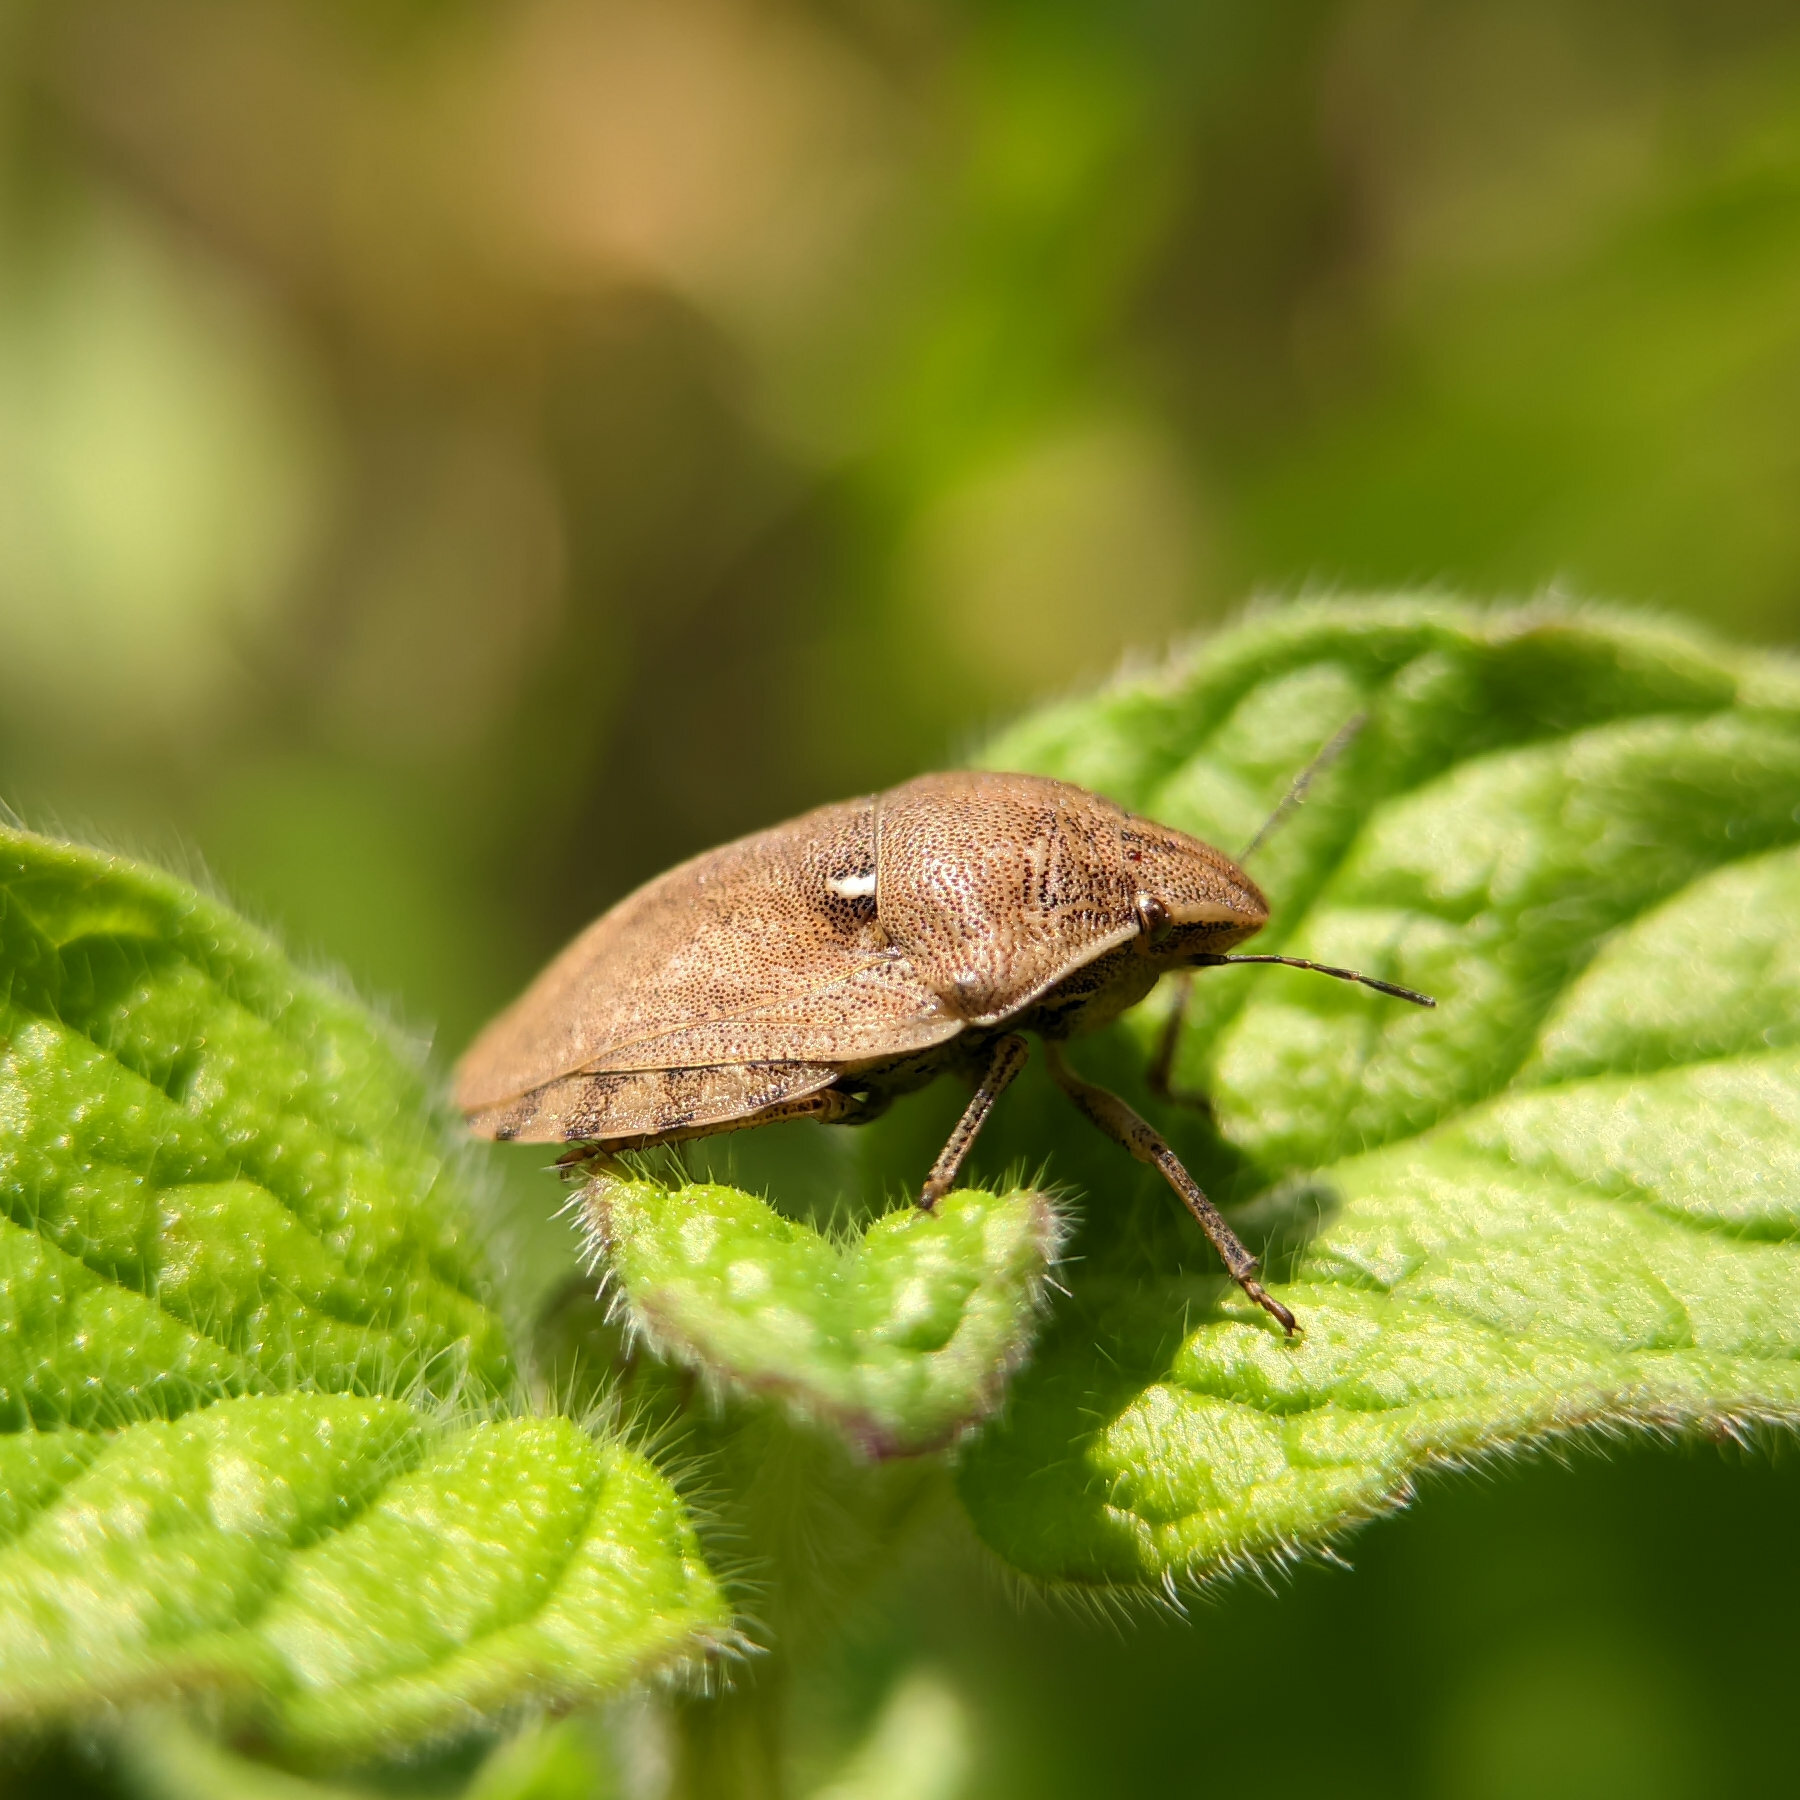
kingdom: Animalia
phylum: Arthropoda
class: Insecta
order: Hemiptera
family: Scutelleridae
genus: Eurygaster
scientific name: Eurygaster maura
